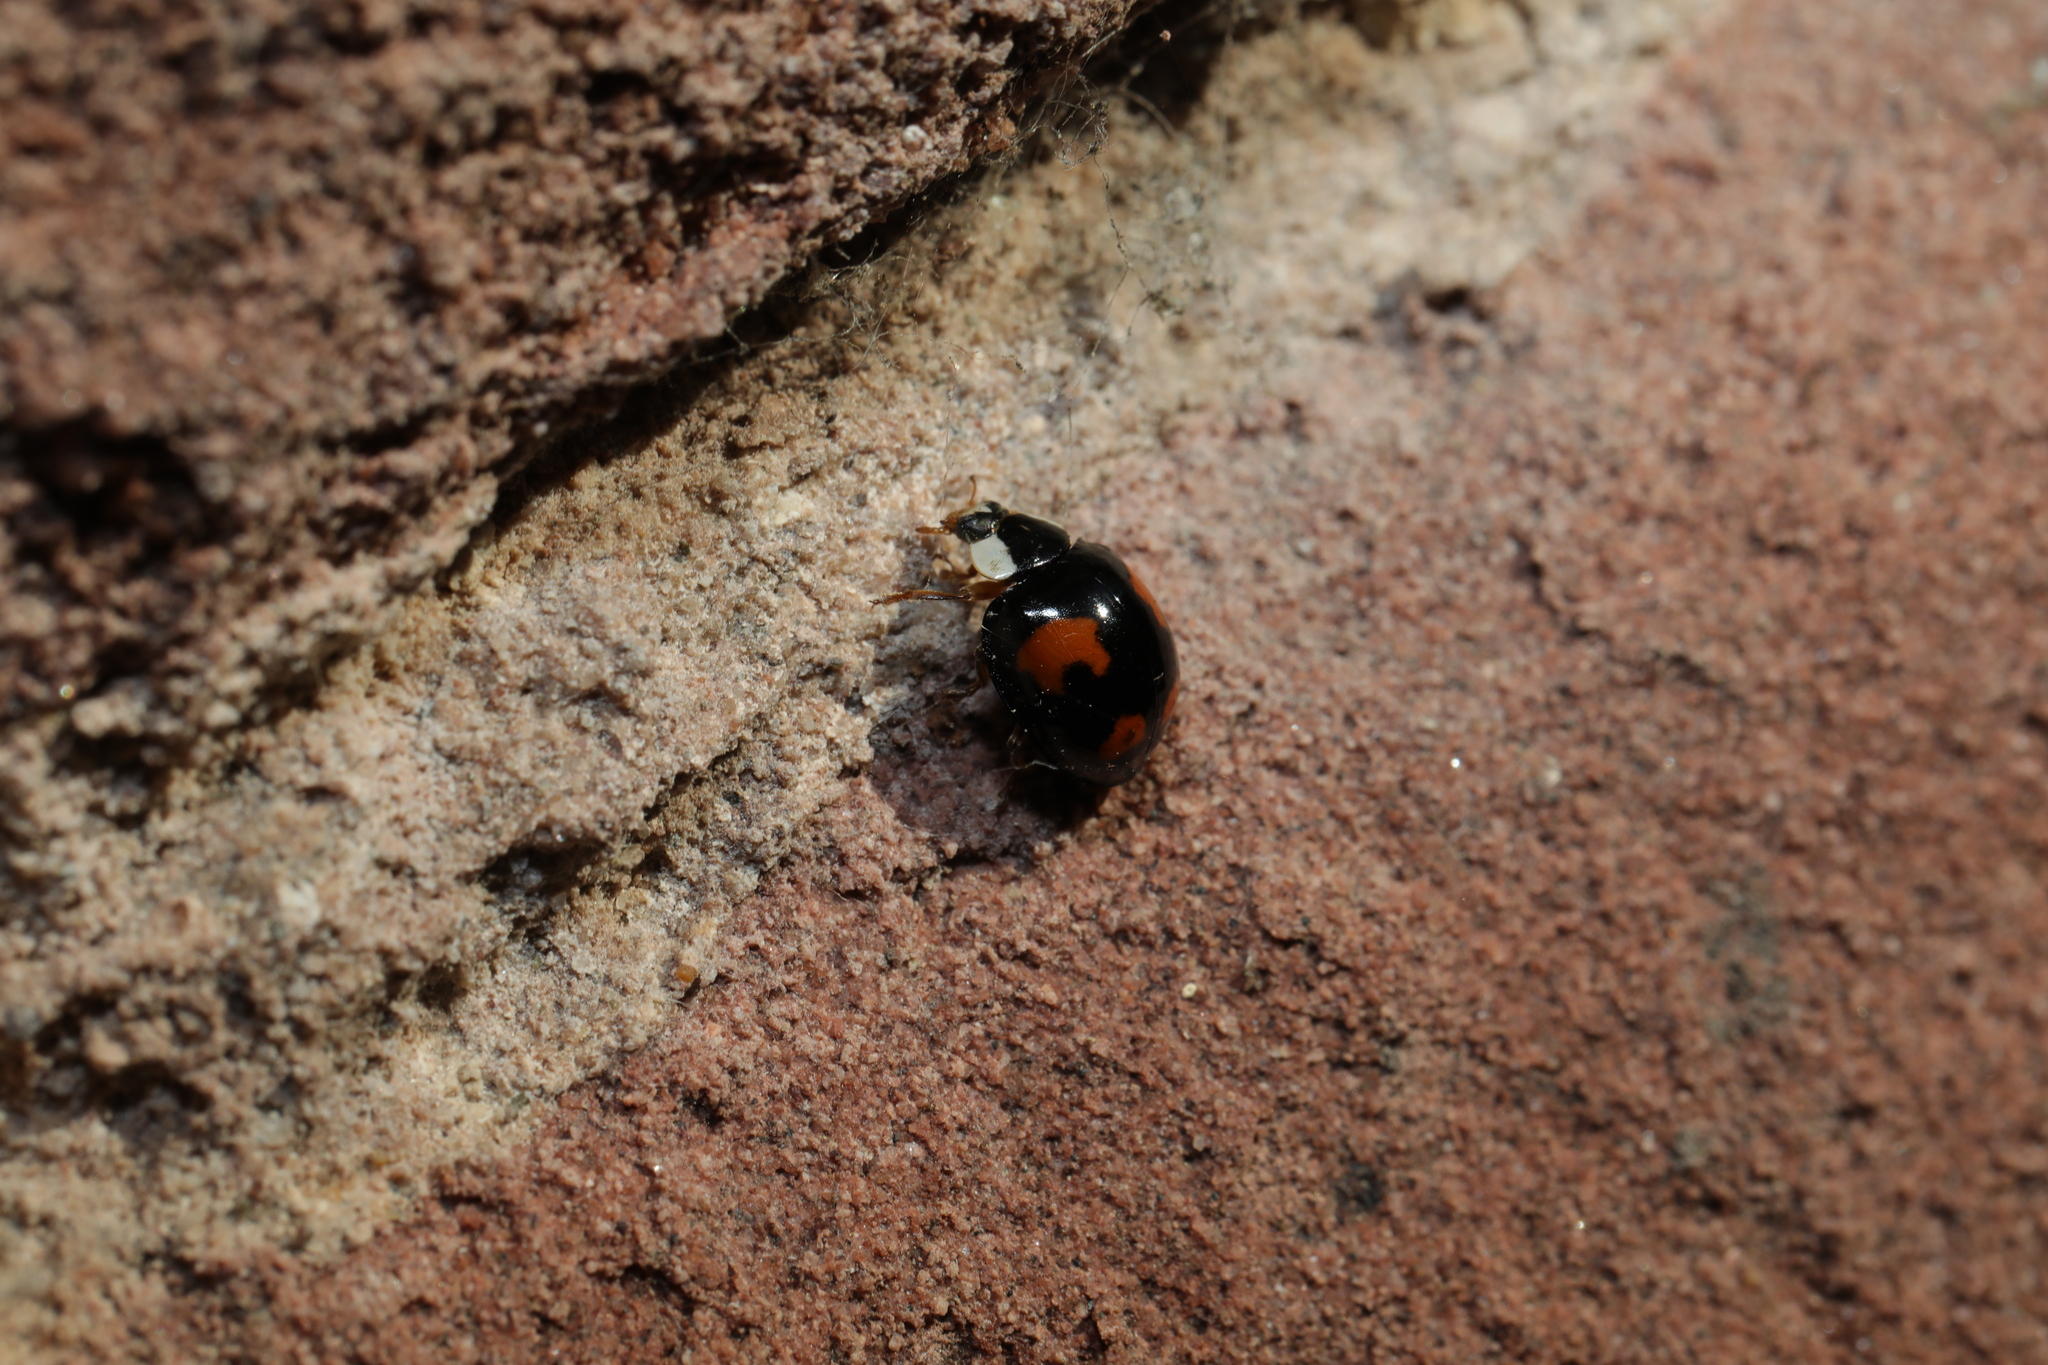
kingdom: Animalia
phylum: Arthropoda
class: Insecta
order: Coleoptera
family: Coccinellidae
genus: Harmonia
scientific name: Harmonia axyridis
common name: Harlequin ladybird
